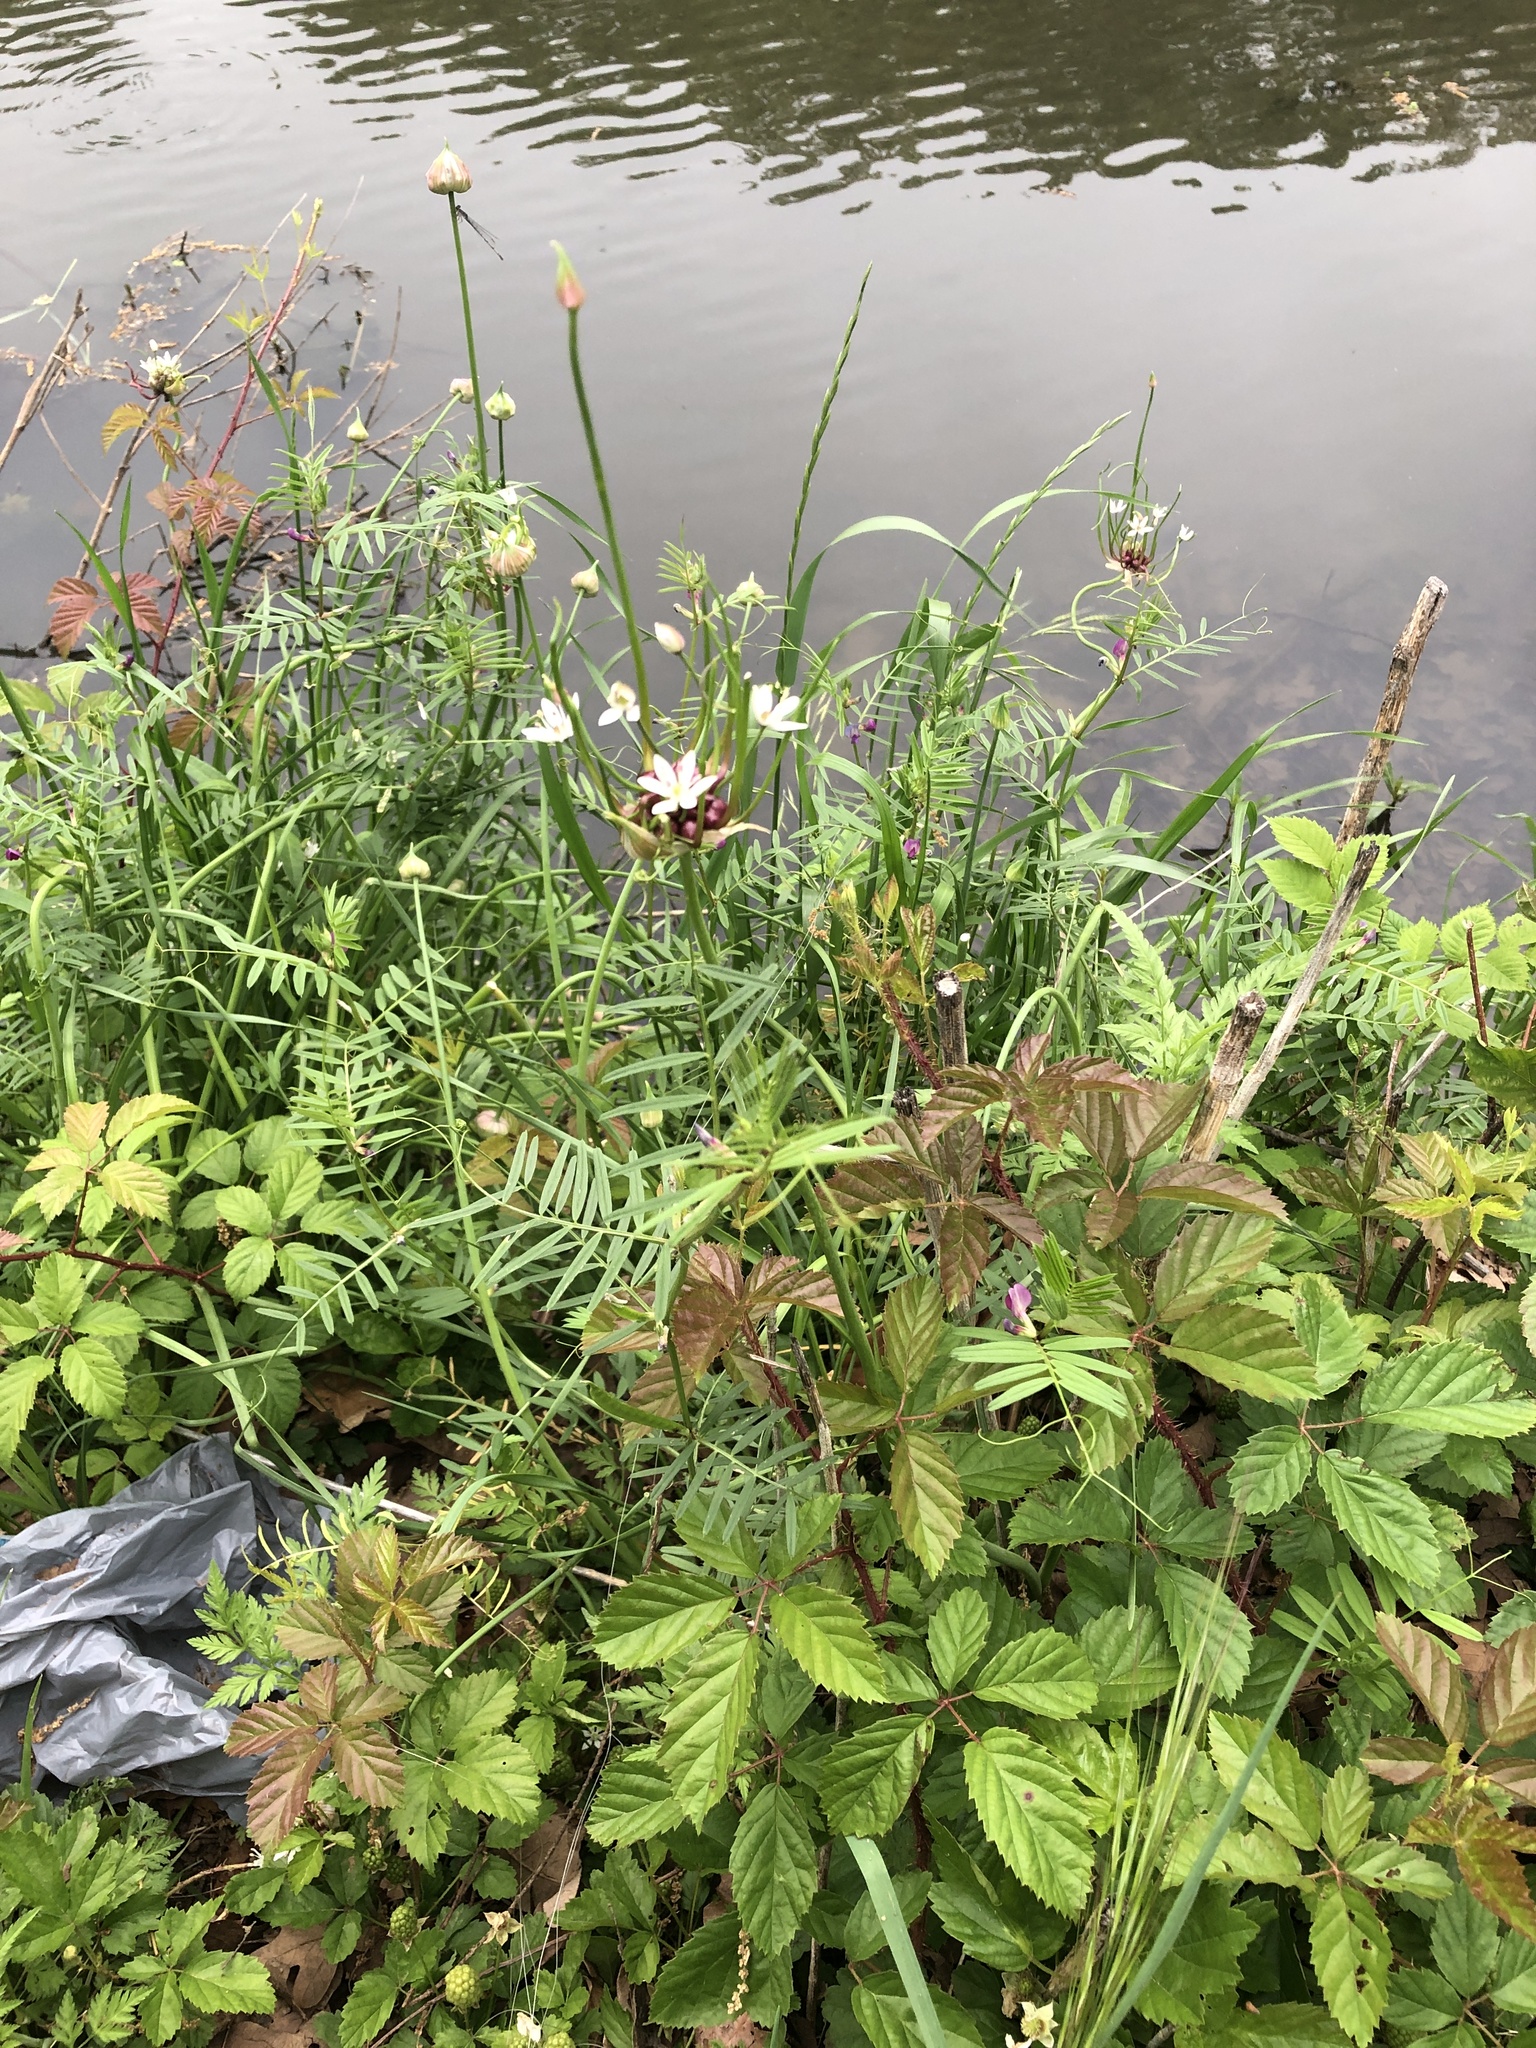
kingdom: Plantae
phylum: Tracheophyta
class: Liliopsida
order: Asparagales
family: Amaryllidaceae
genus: Allium
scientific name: Allium canadense
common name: Meadow garlic
